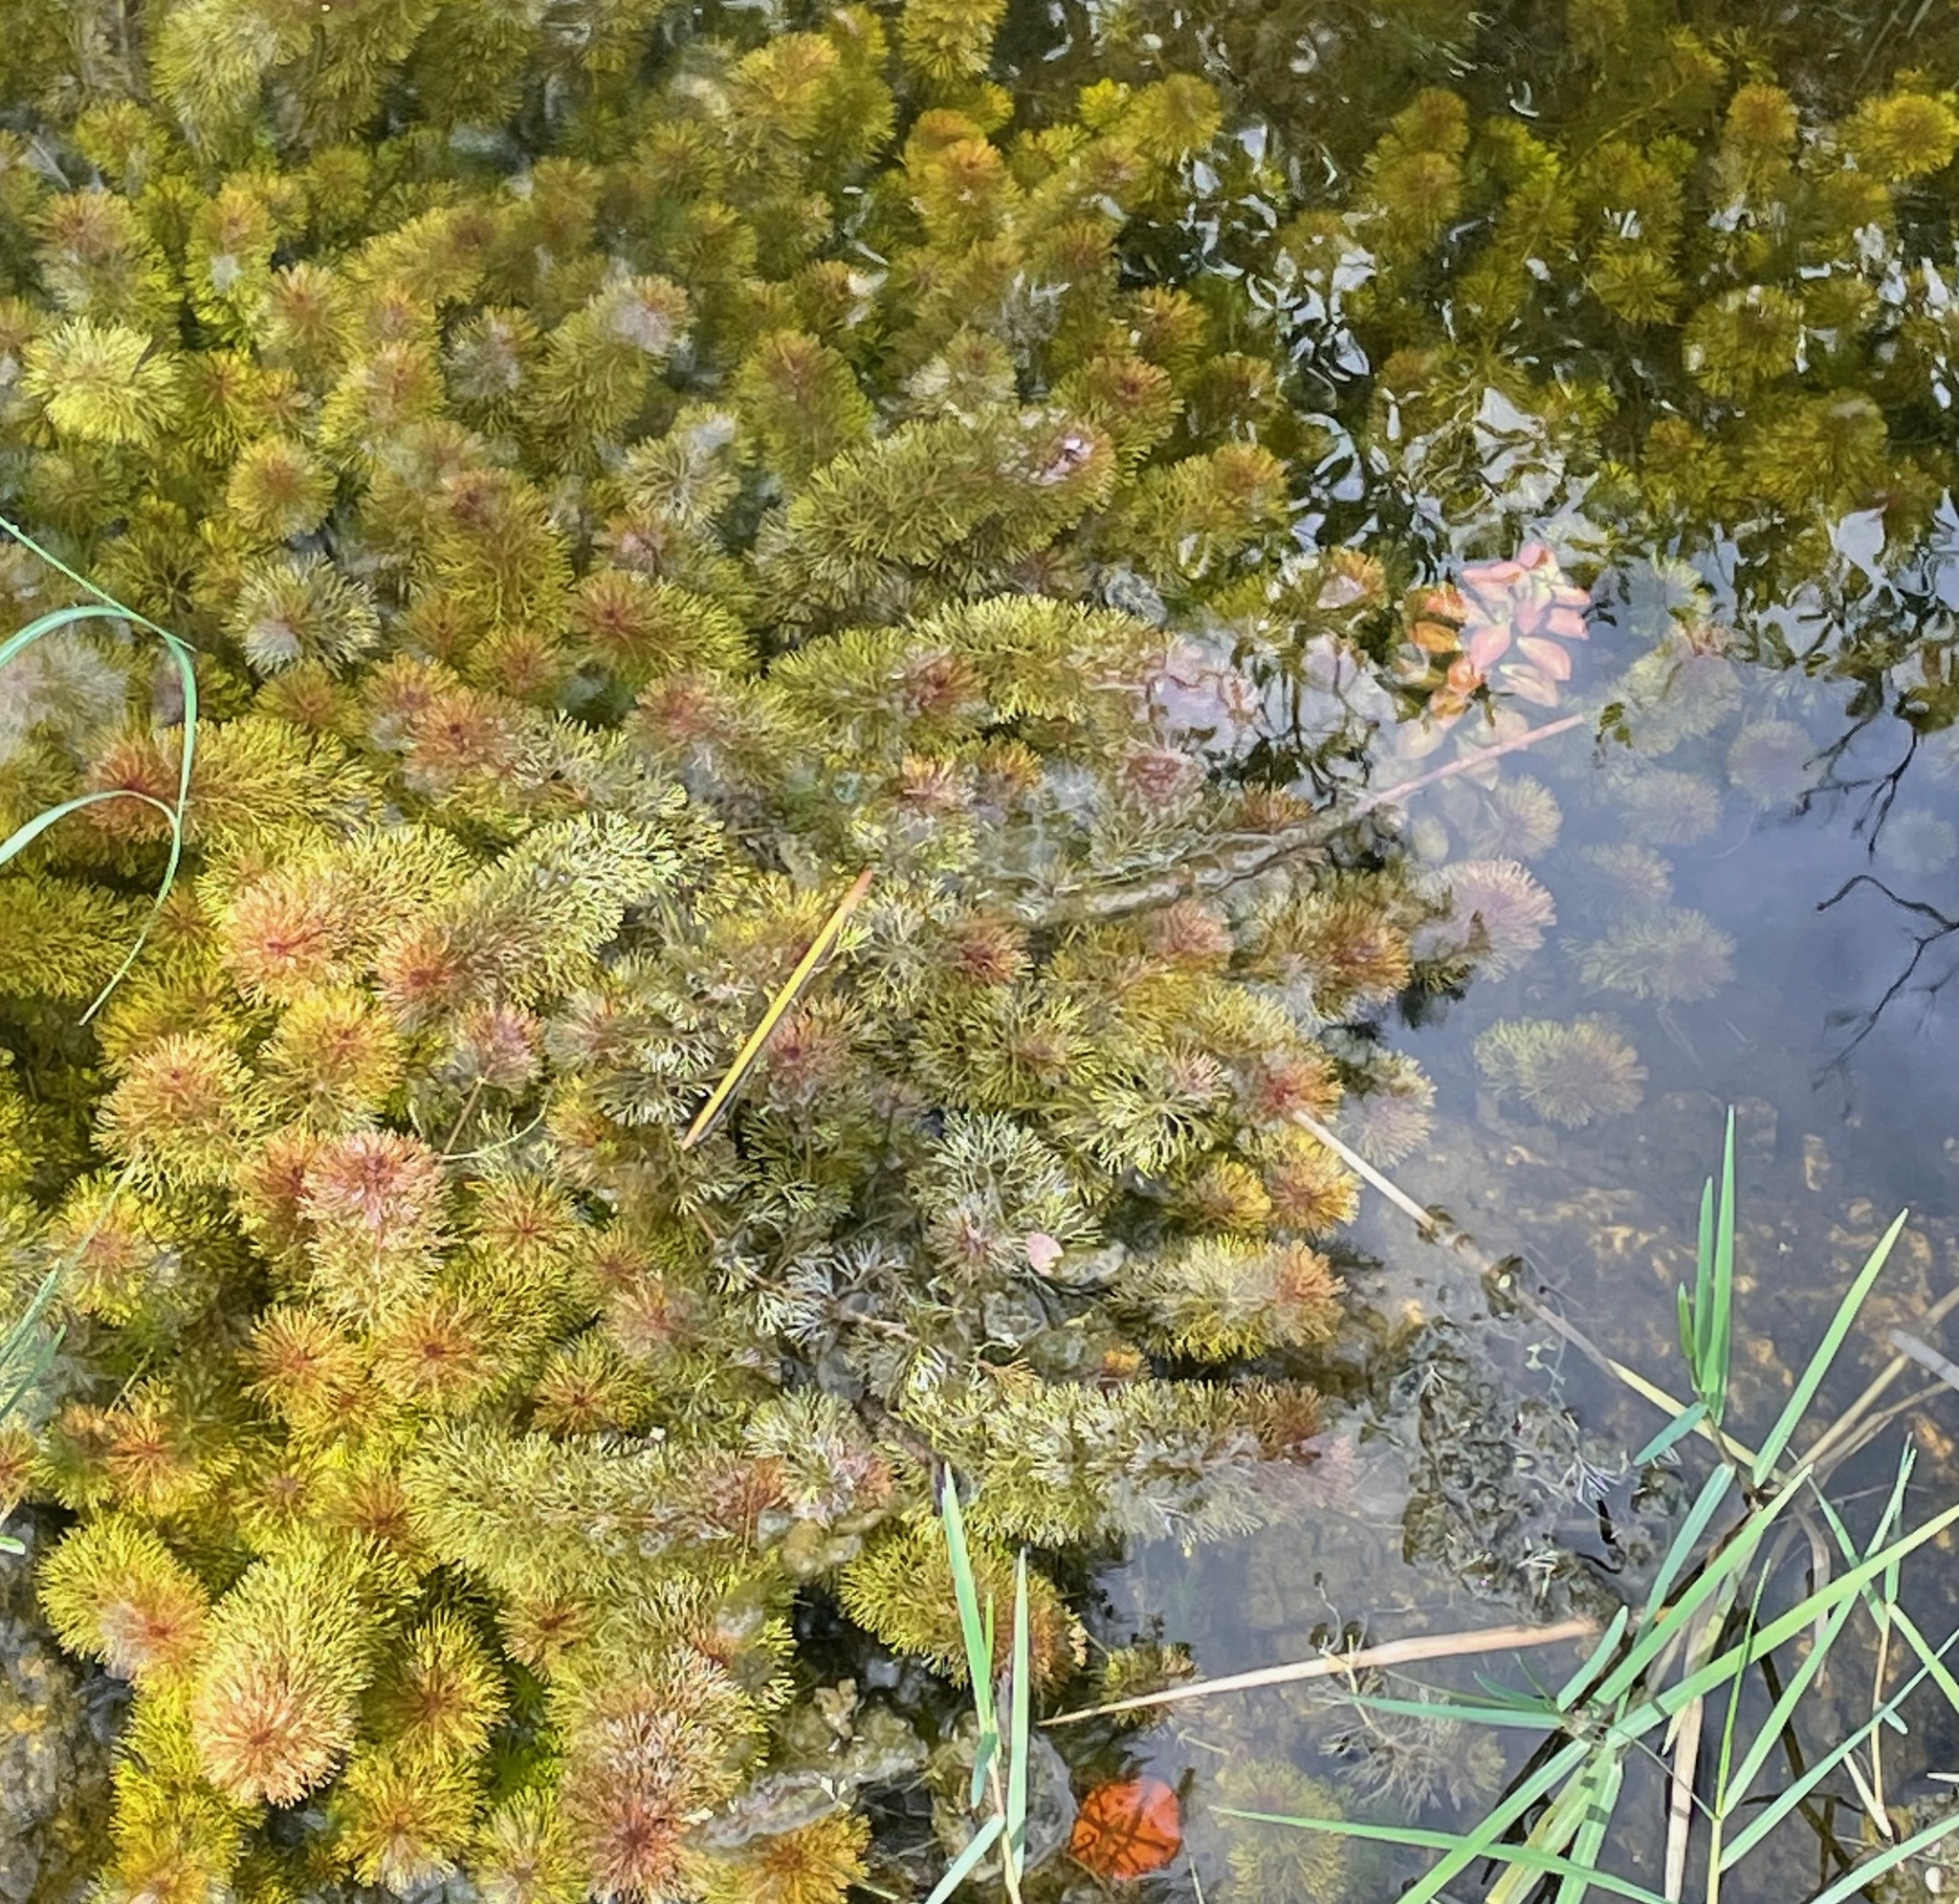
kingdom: Plantae
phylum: Tracheophyta
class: Magnoliopsida
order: Lamiales
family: Plantaginaceae
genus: Limnophila
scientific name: Limnophila sessiliflora
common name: Asian marshweed
